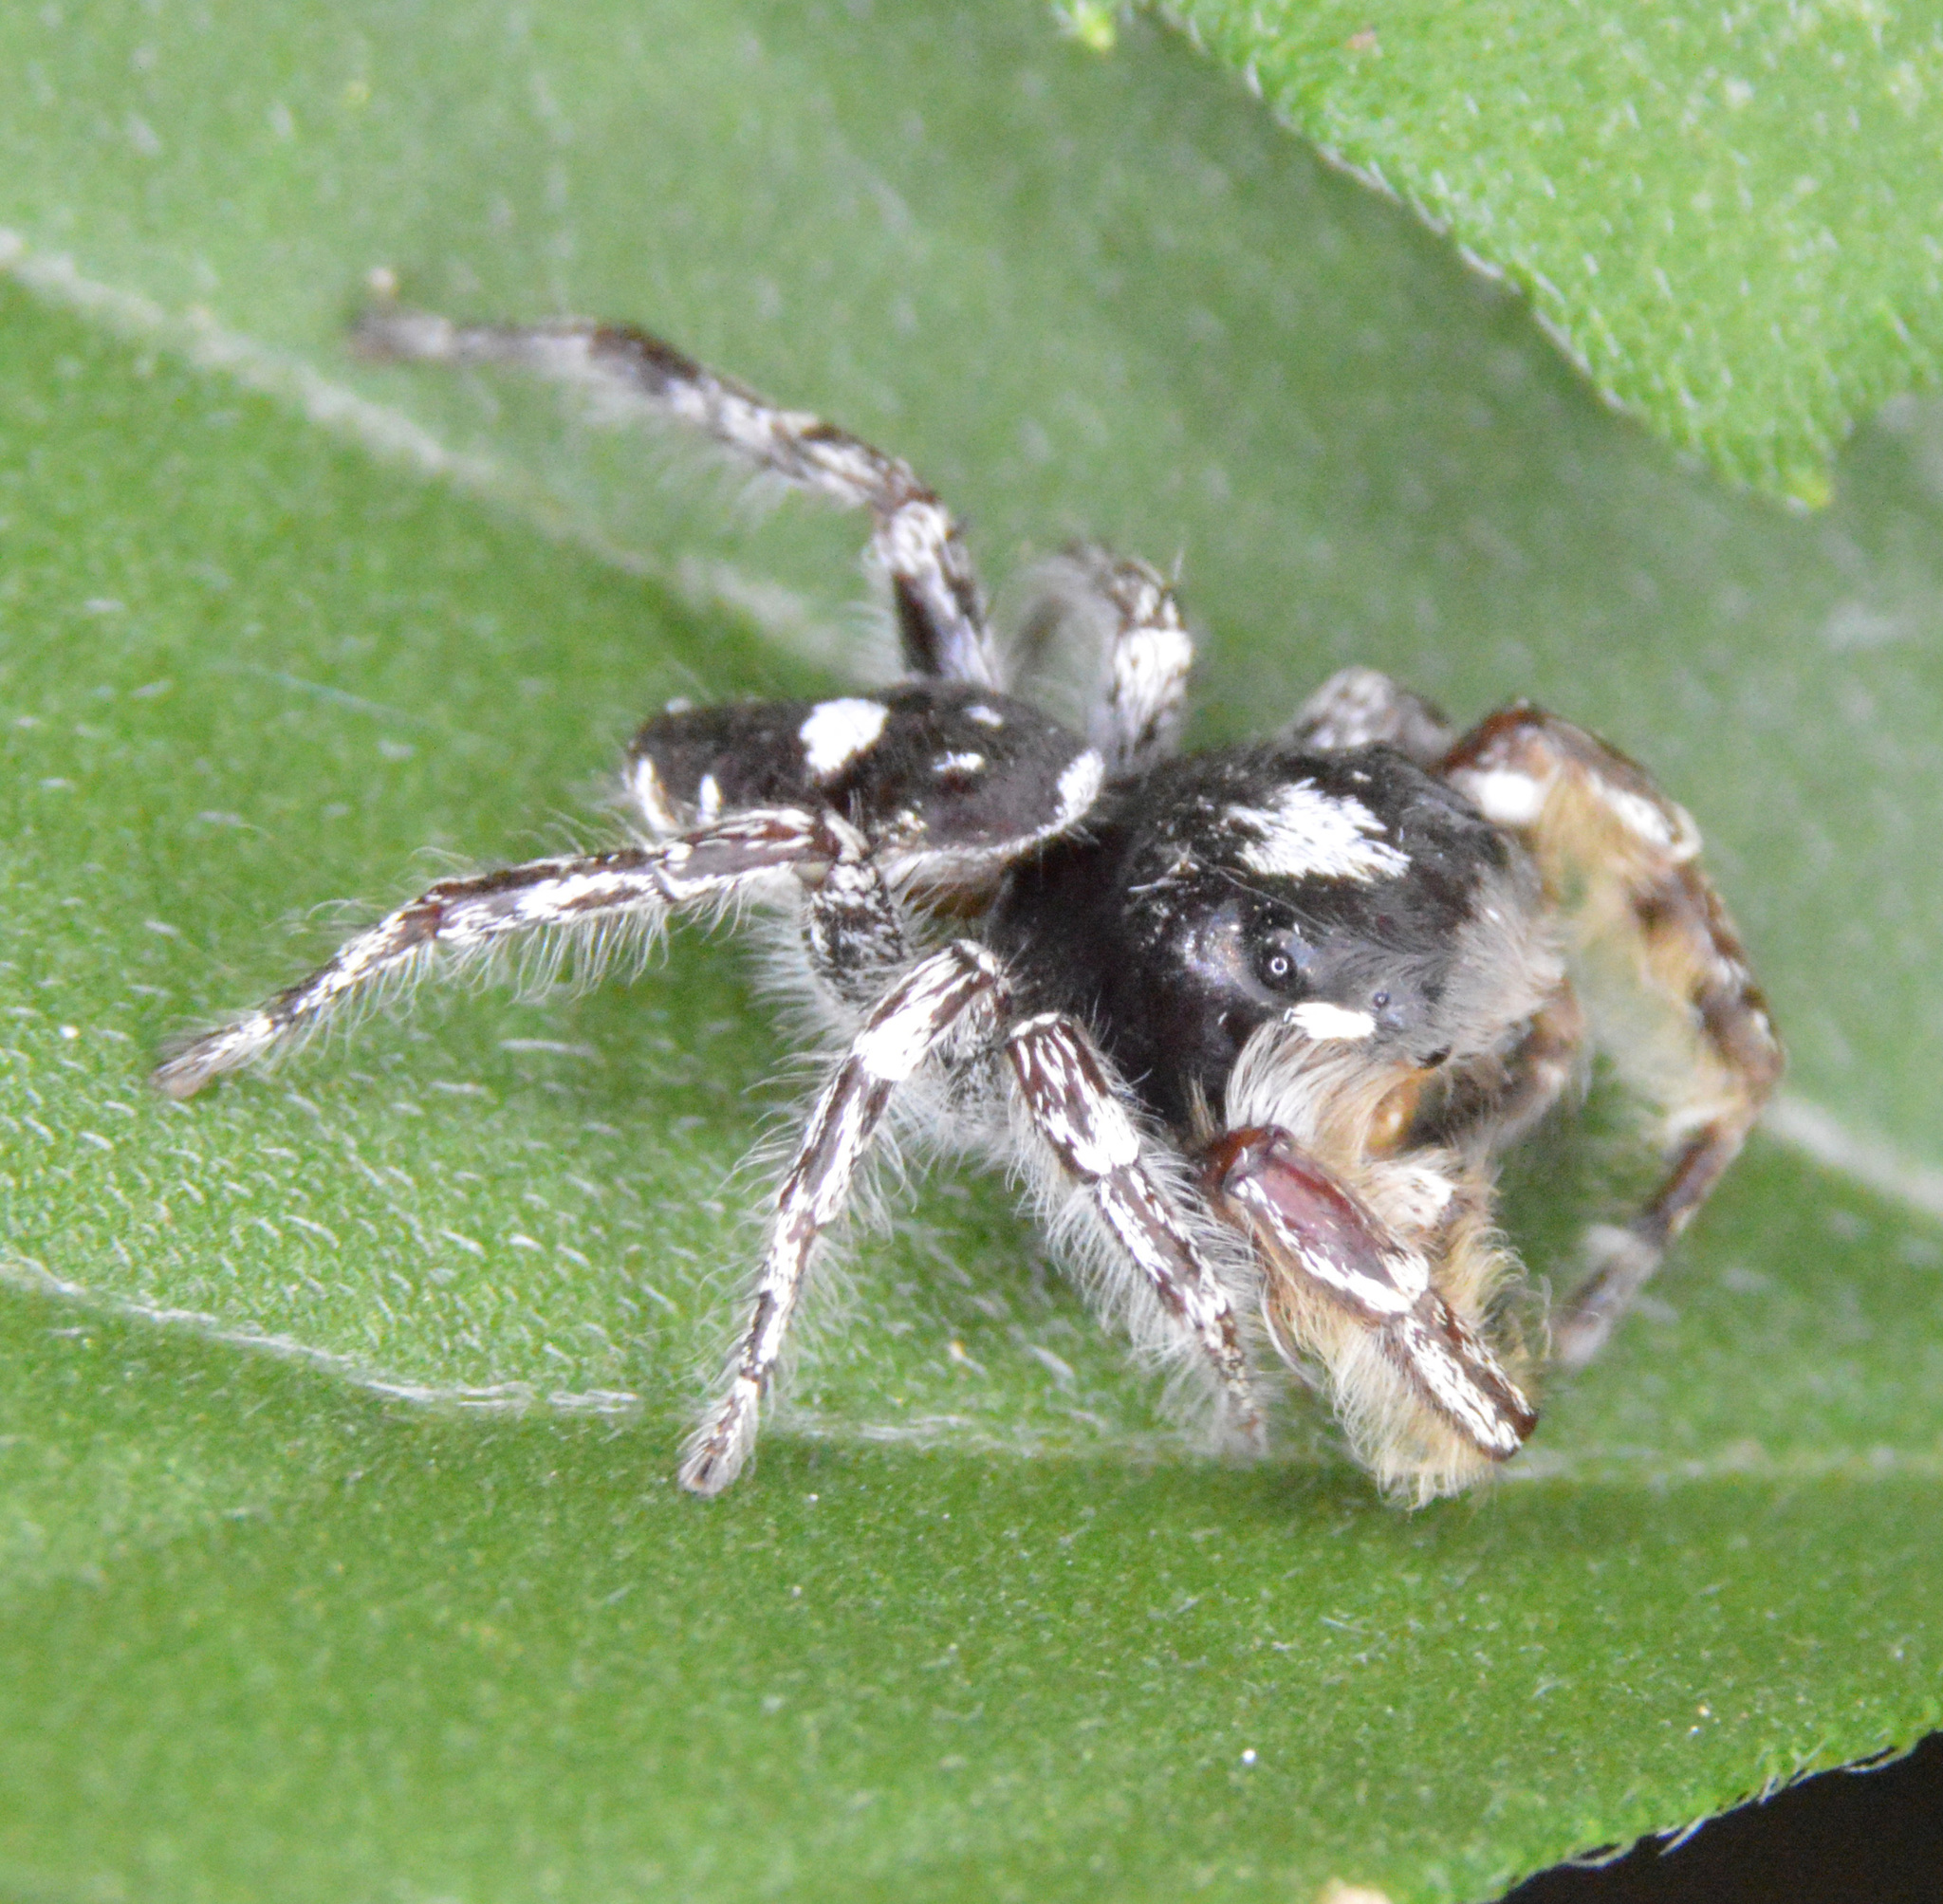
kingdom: Animalia
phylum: Arthropoda
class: Arachnida
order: Araneae
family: Salticidae
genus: Phidippus
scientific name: Phidippus putnami
